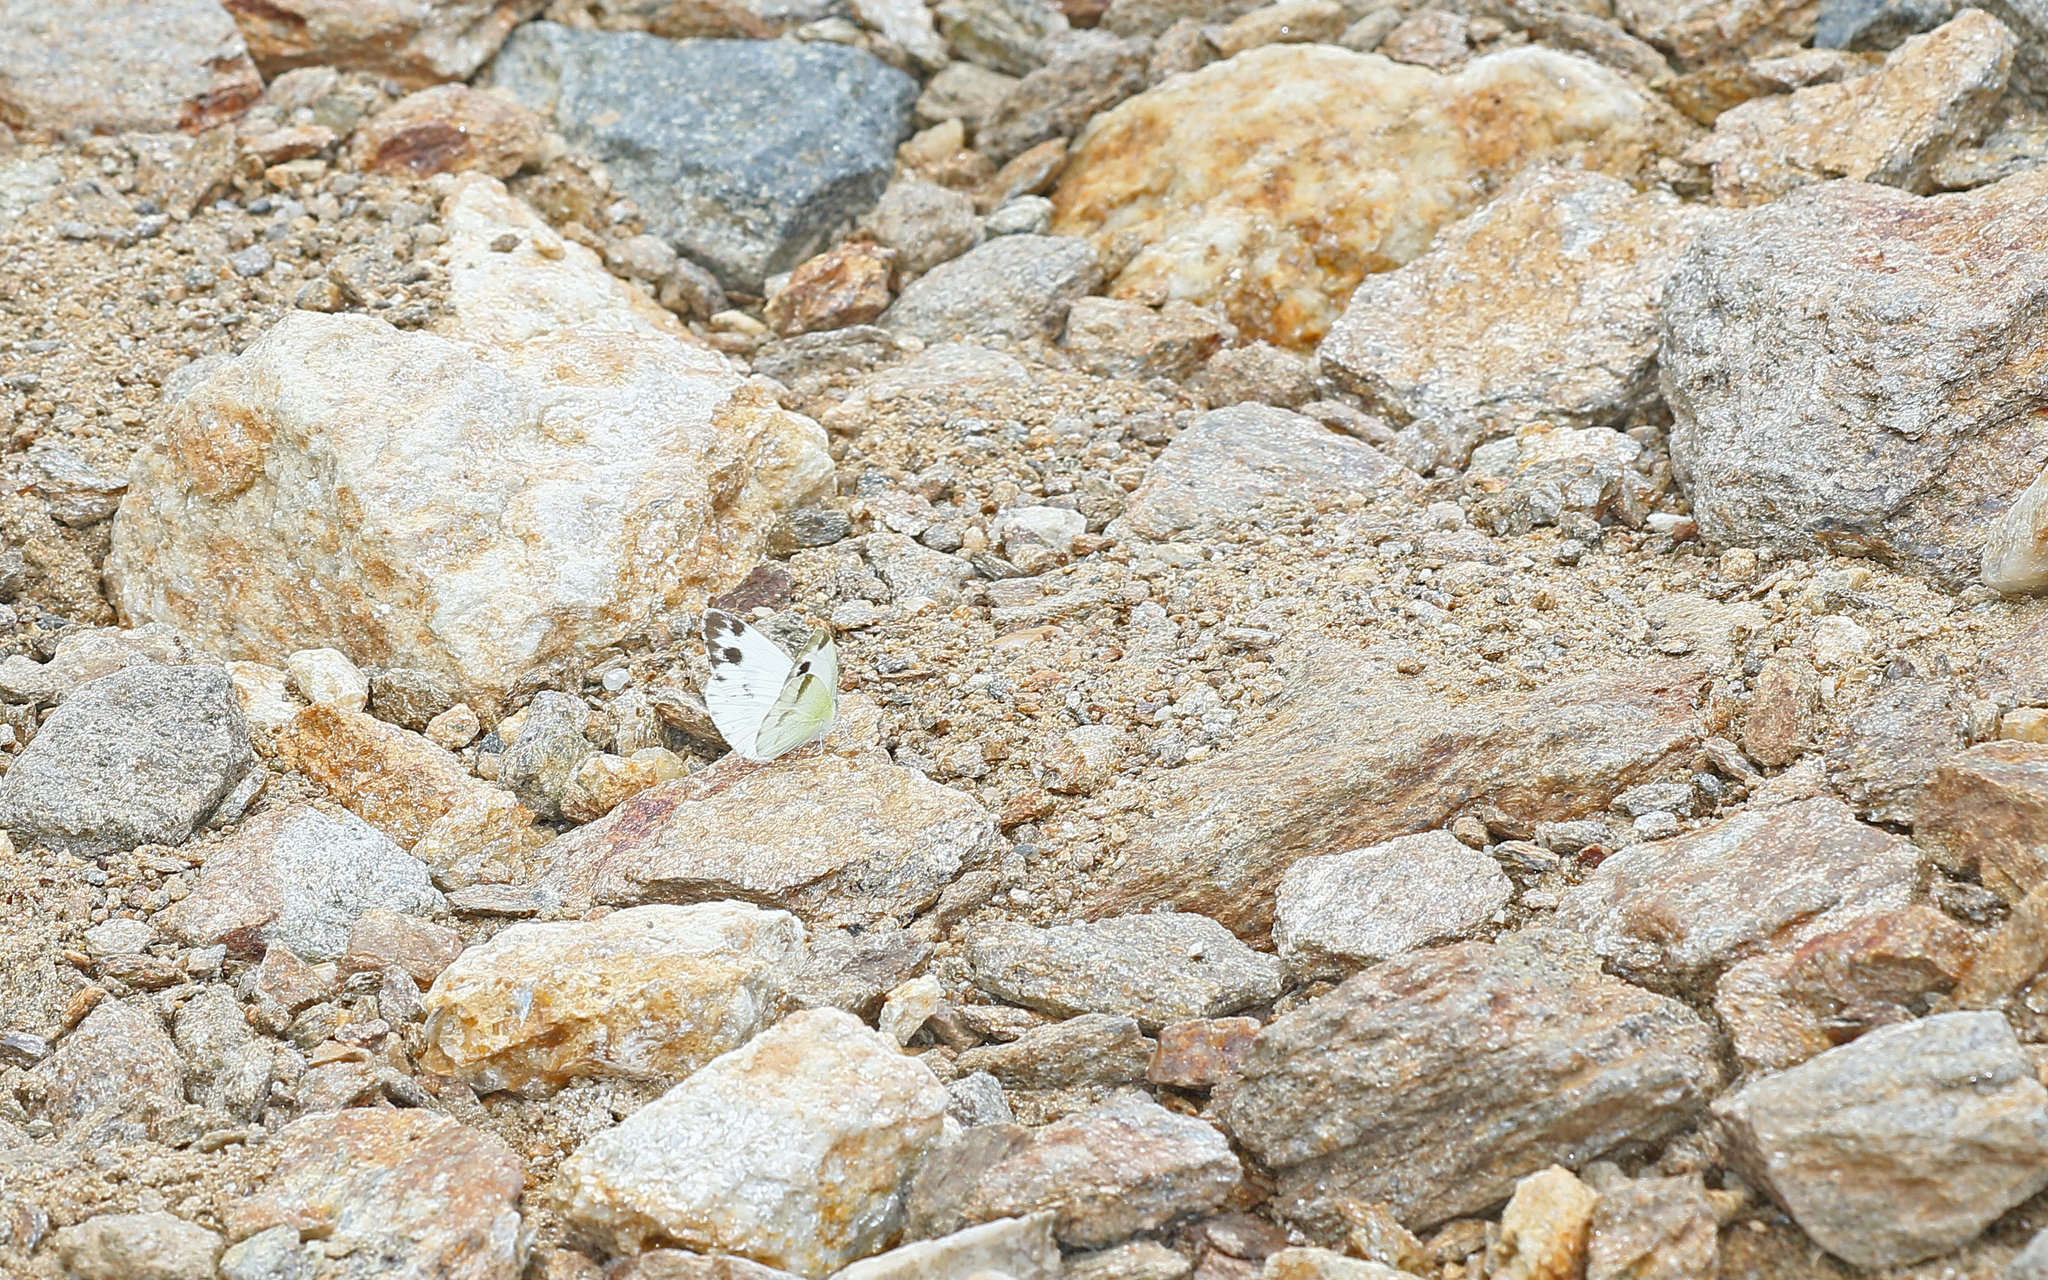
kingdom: Animalia
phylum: Arthropoda
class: Insecta
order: Lepidoptera
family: Pieridae
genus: Pieris
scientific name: Pieris krueperi
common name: Krueper's small white
